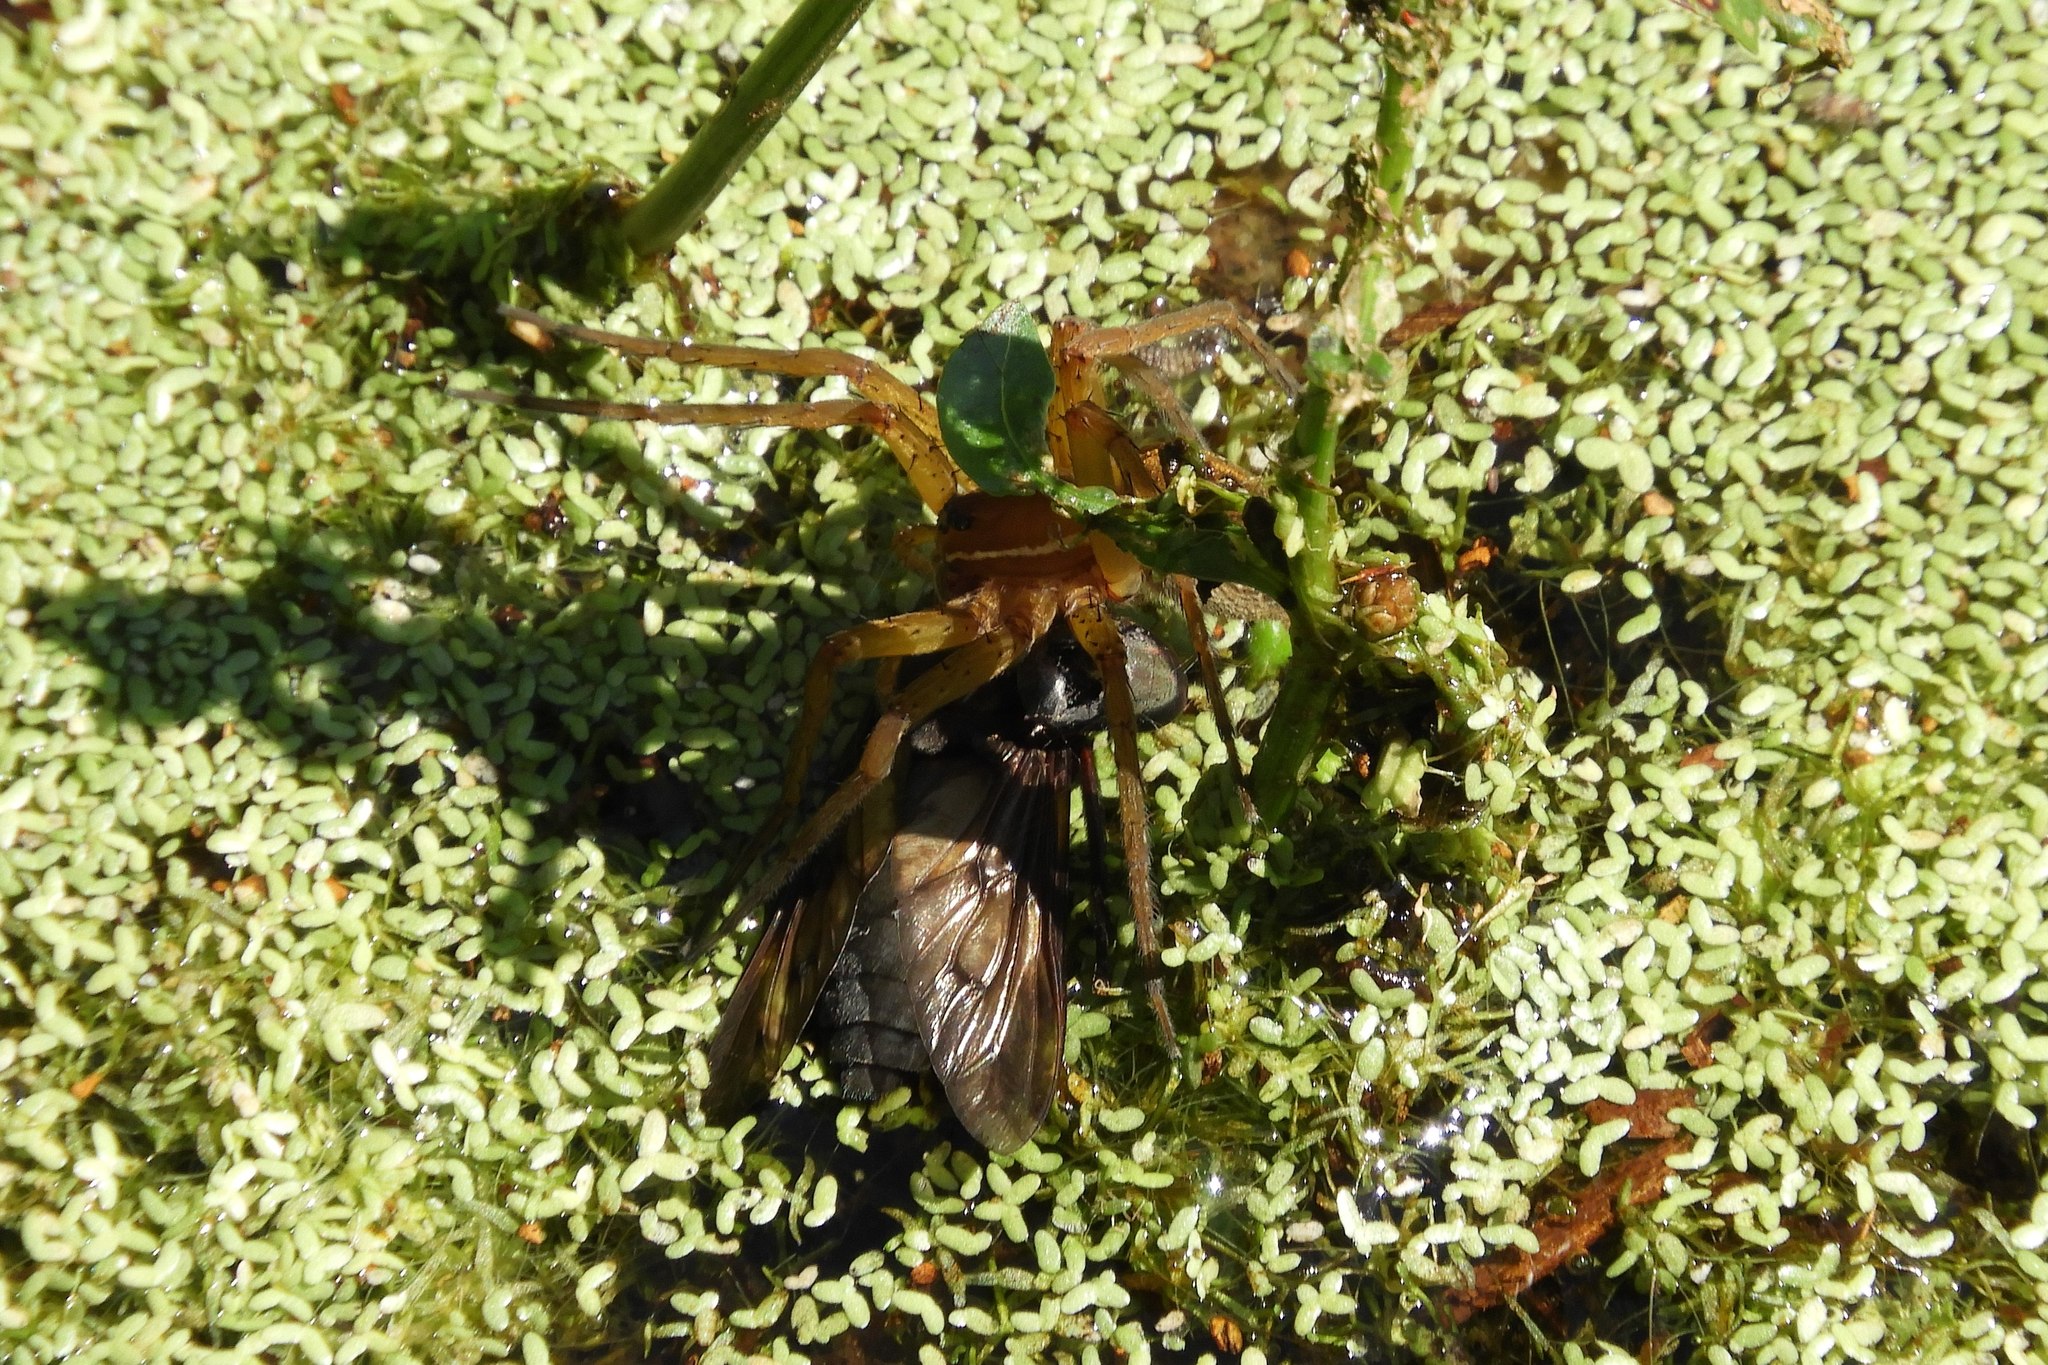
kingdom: Animalia
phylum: Arthropoda
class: Arachnida
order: Araneae
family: Pisauridae
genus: Dolomedes
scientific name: Dolomedes triton
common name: Six-spotted fishing spider
